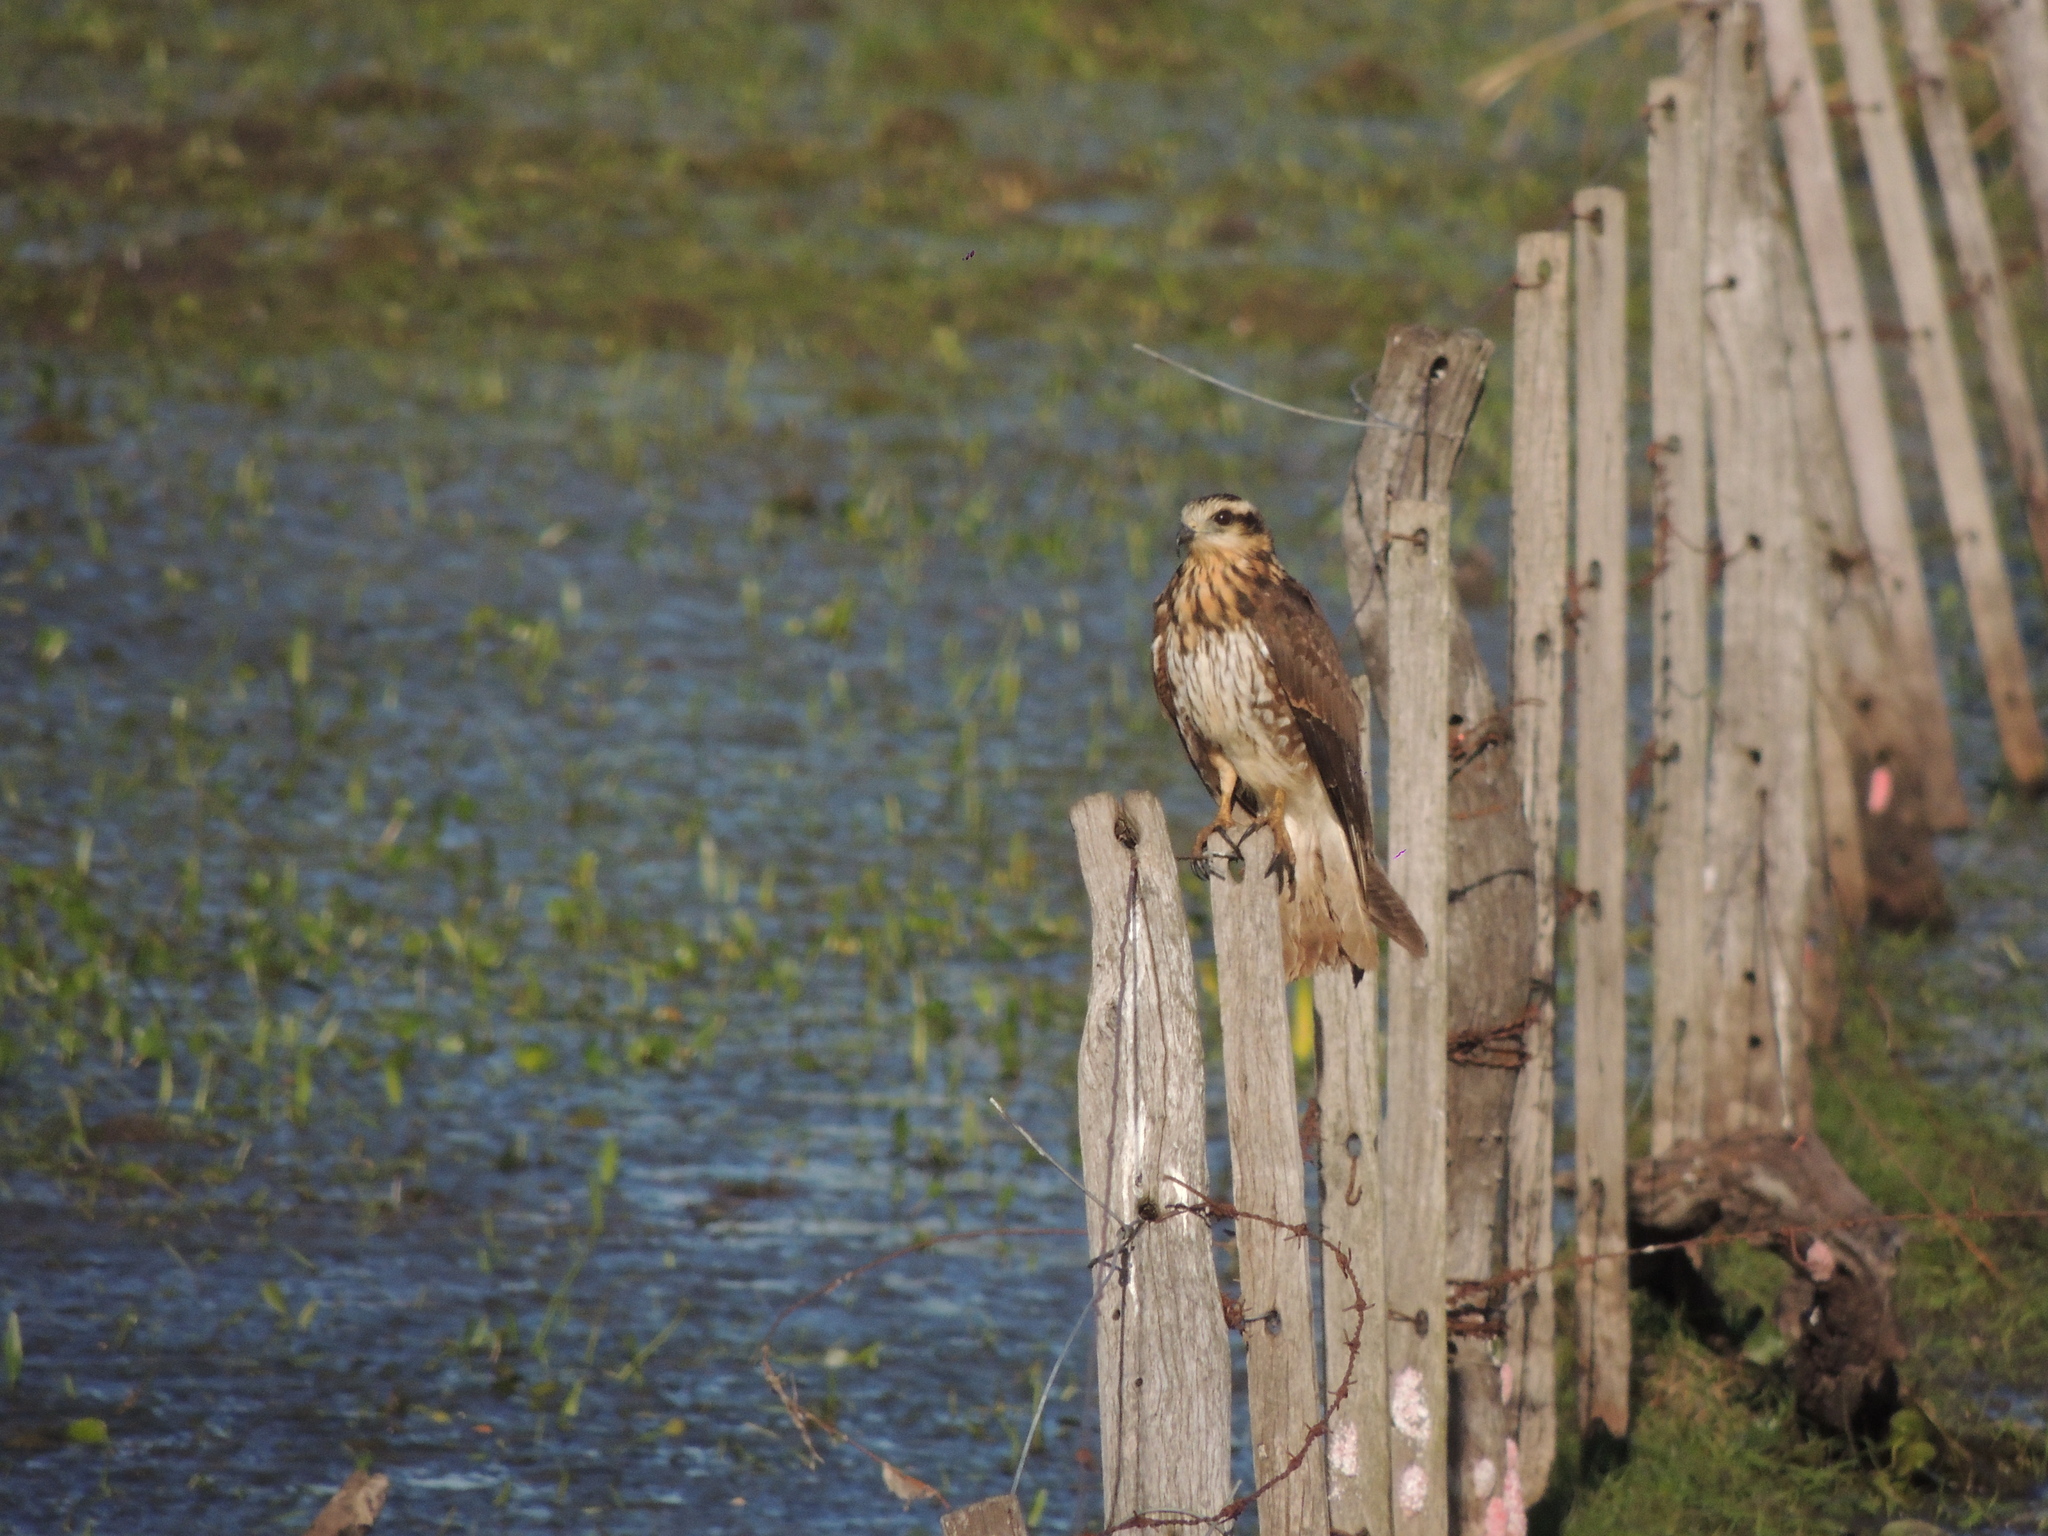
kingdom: Animalia
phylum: Chordata
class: Aves
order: Accipitriformes
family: Accipitridae
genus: Rostrhamus
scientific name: Rostrhamus sociabilis
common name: Snail kite
